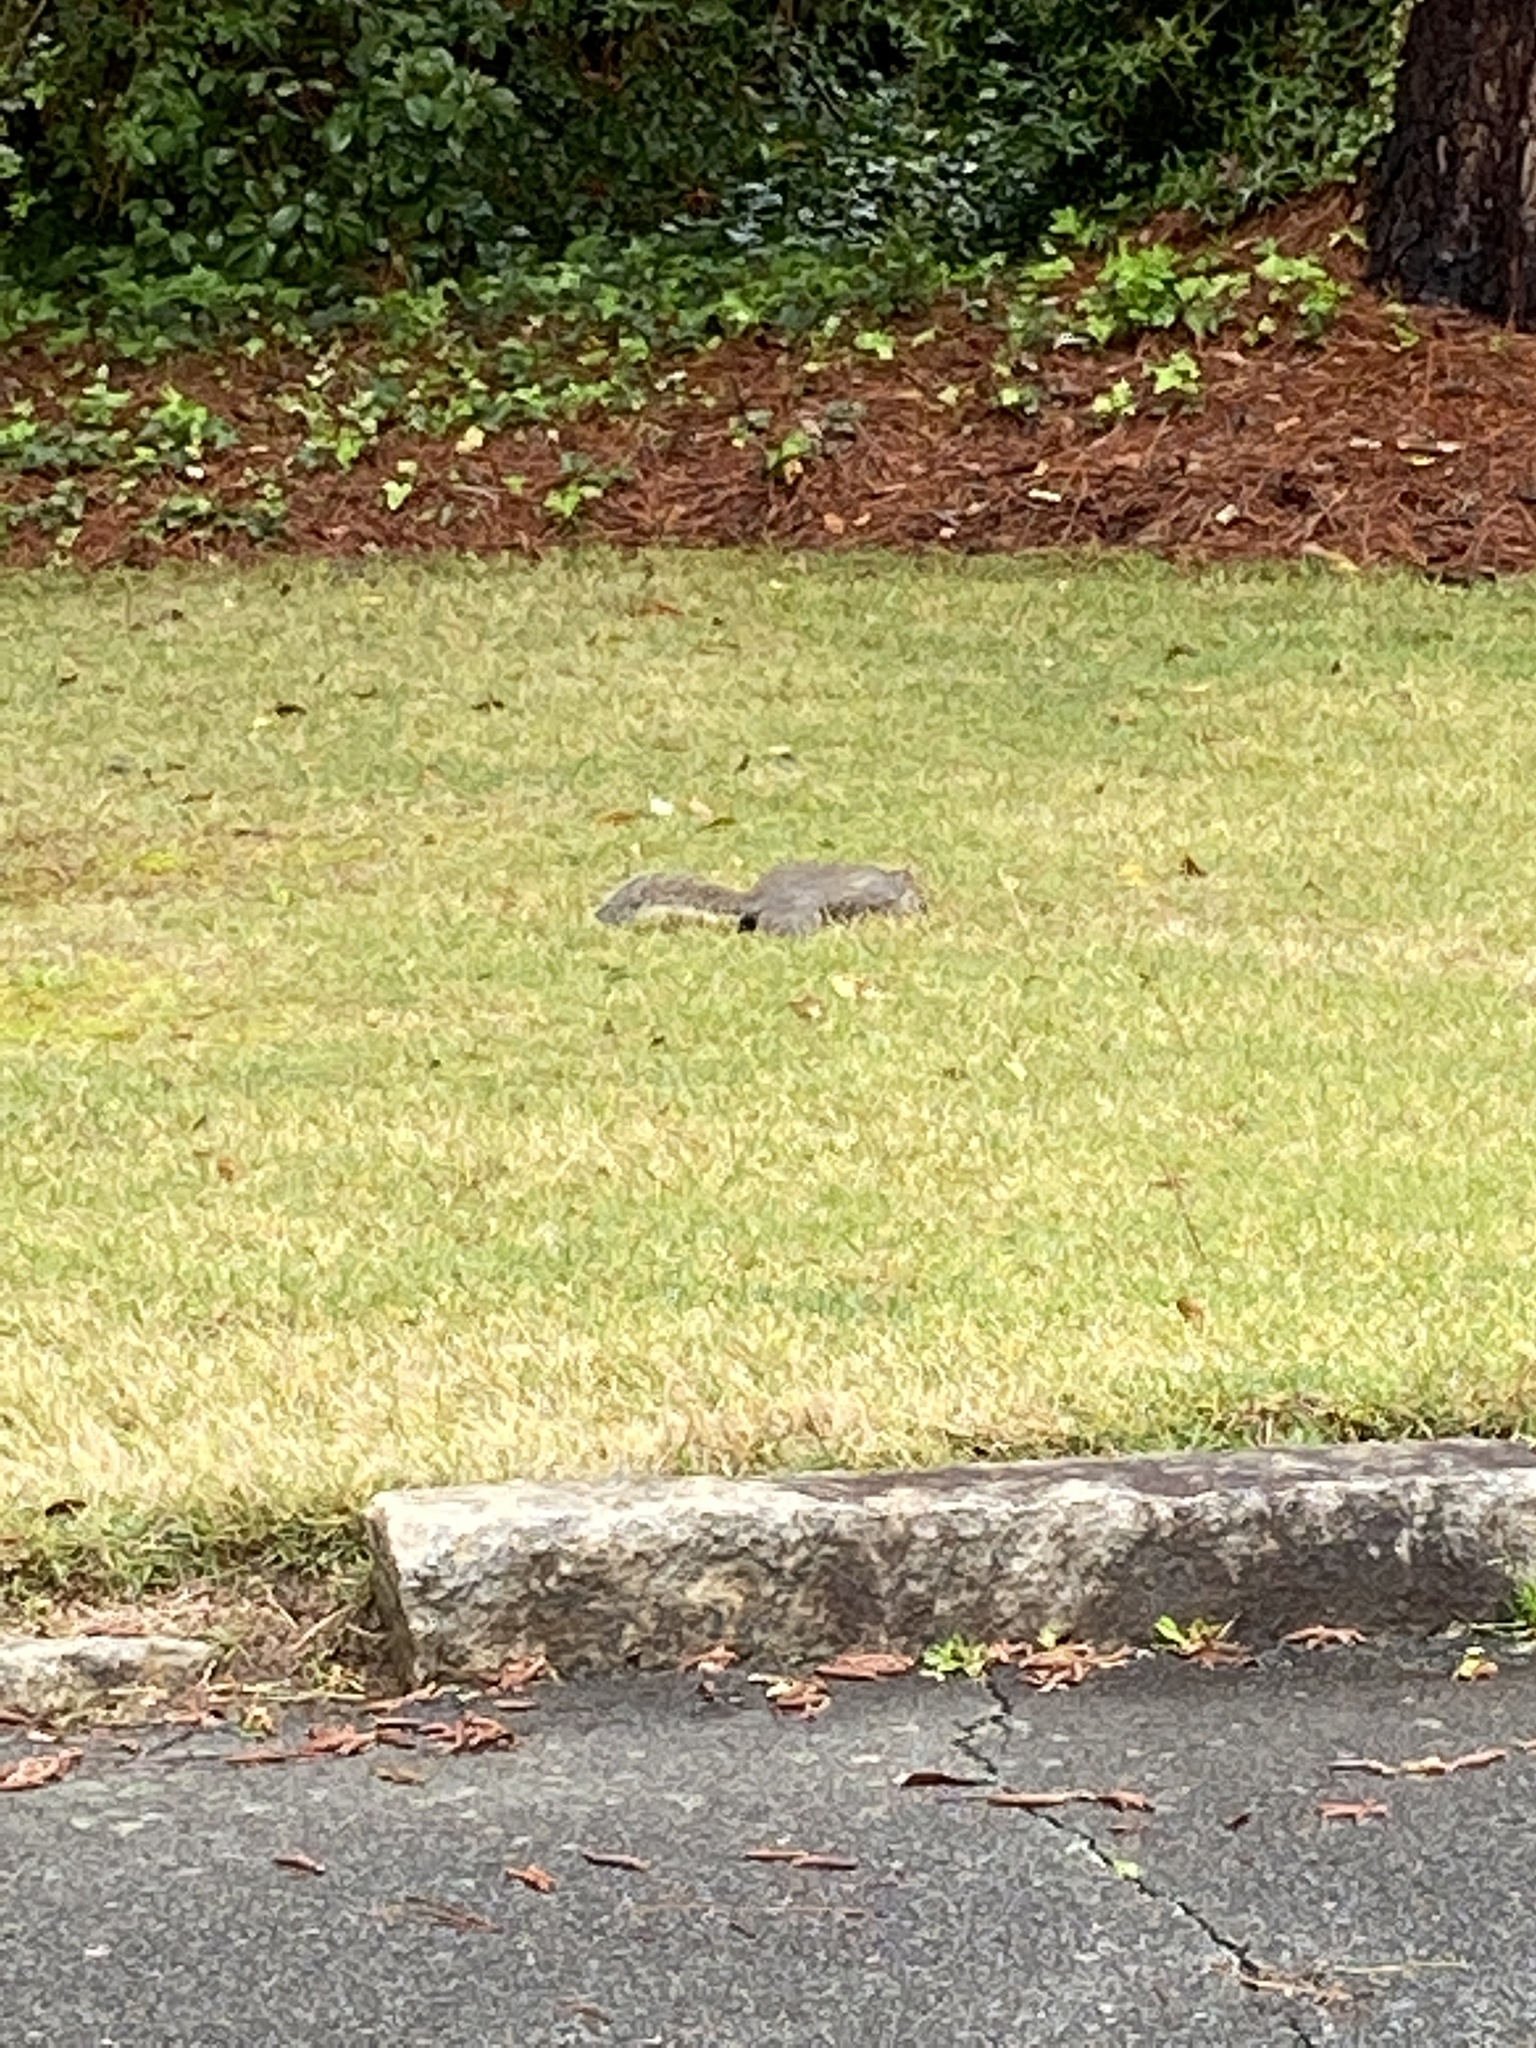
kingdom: Animalia
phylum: Chordata
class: Mammalia
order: Rodentia
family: Sciuridae
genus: Sciurus
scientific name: Sciurus carolinensis
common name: Eastern gray squirrel
